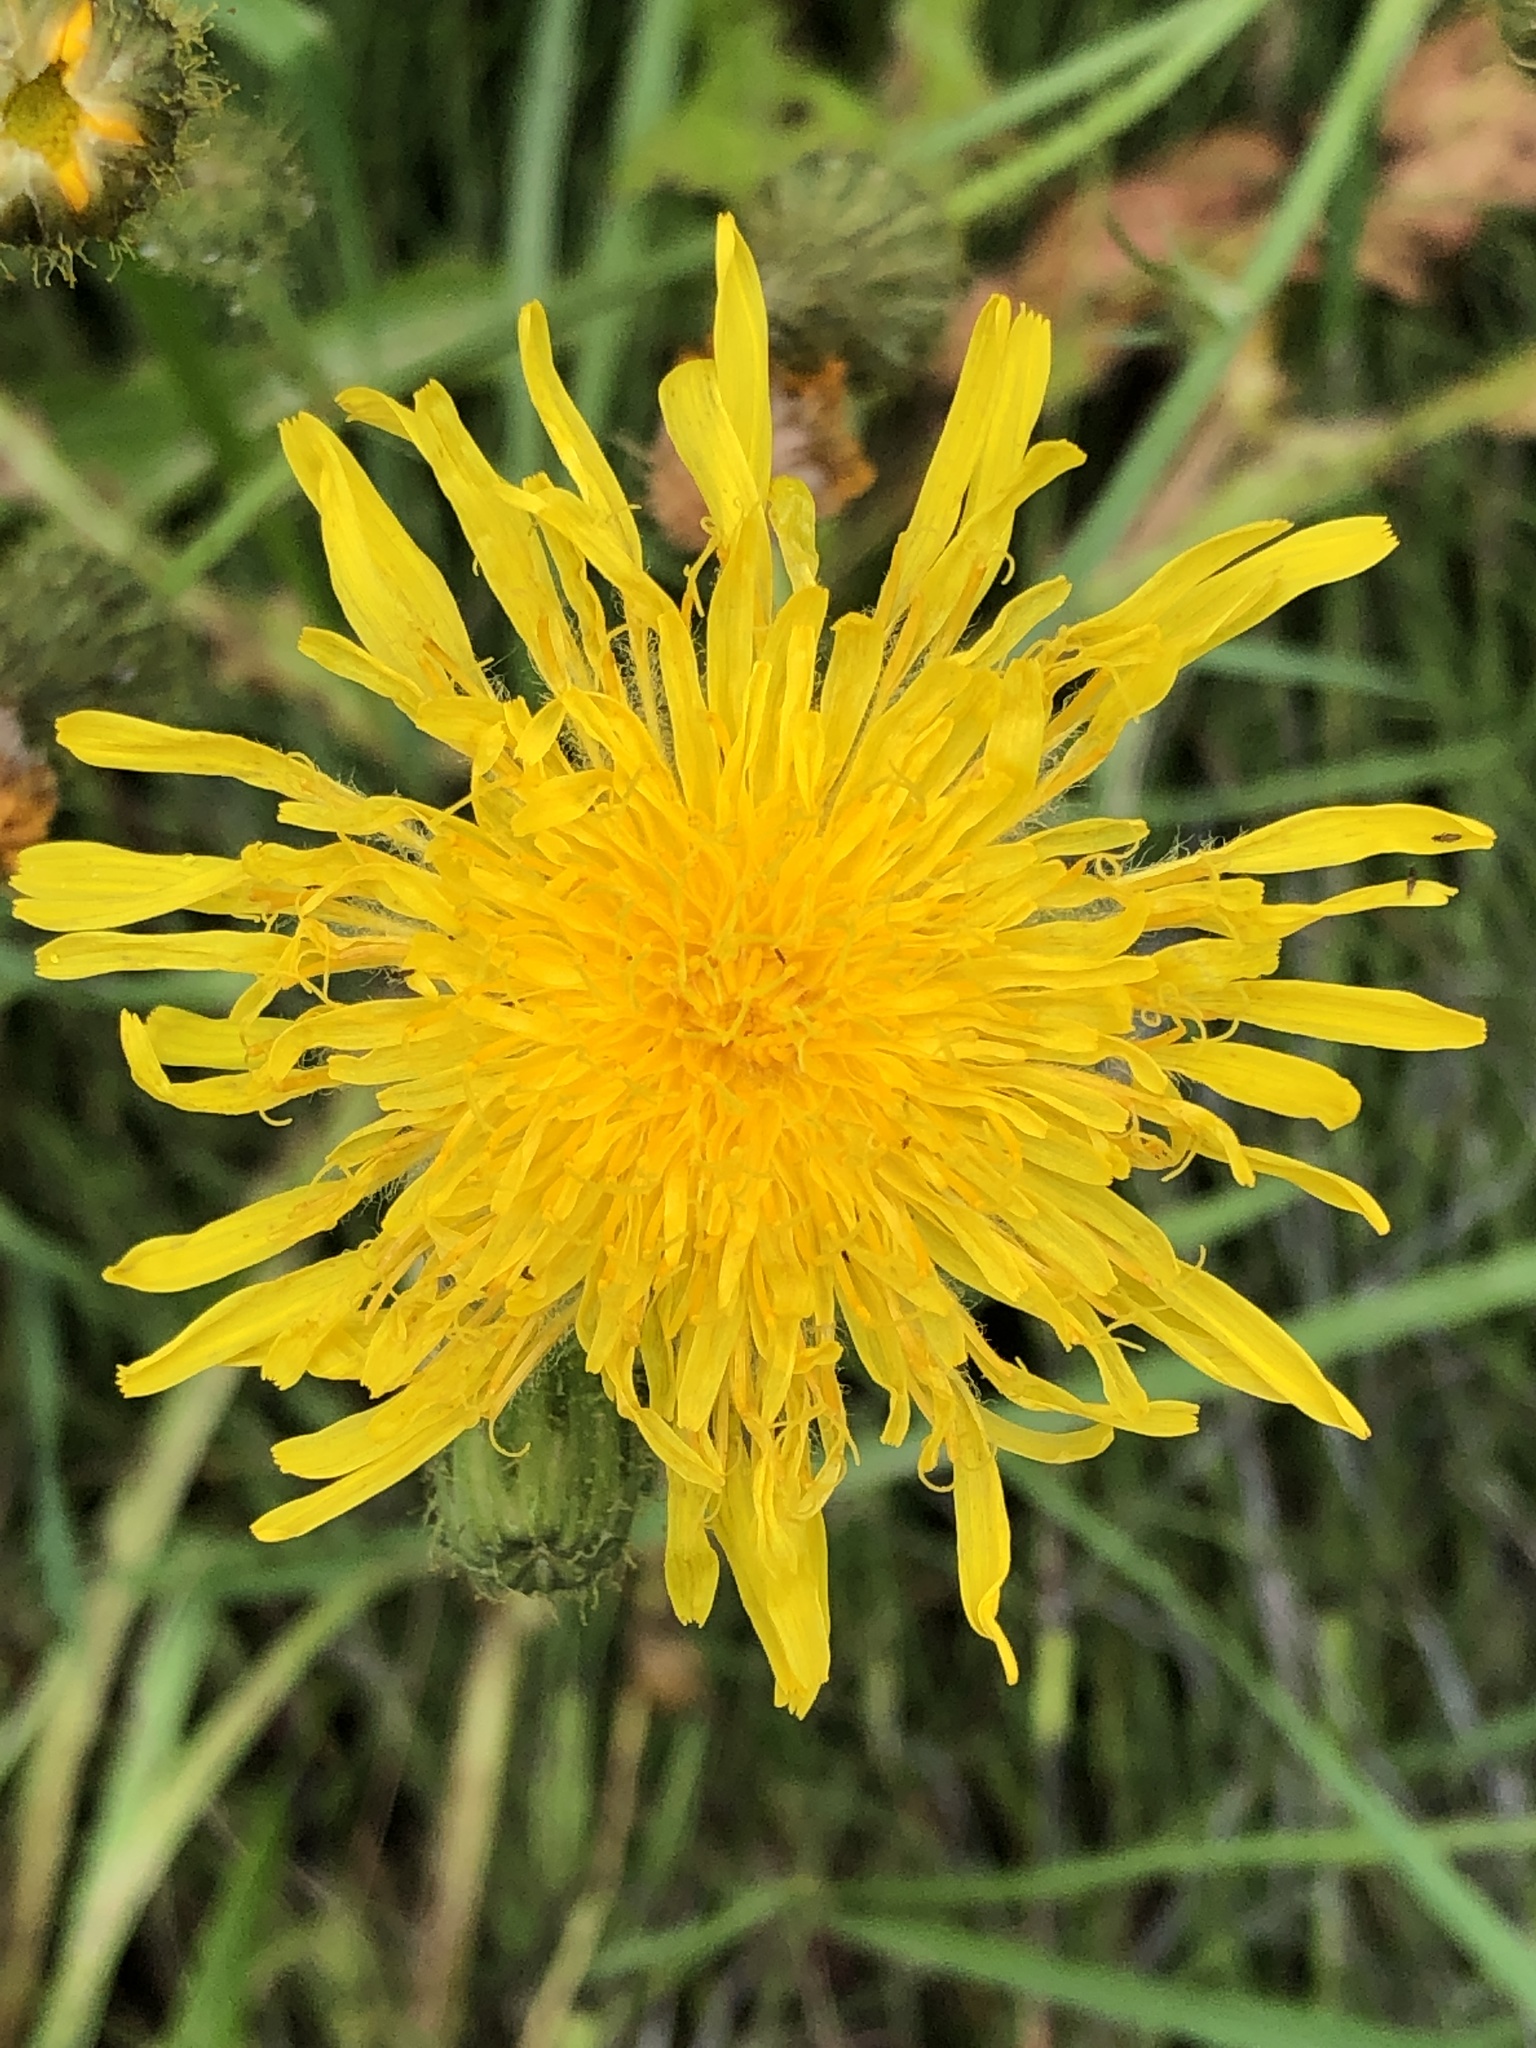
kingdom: Plantae
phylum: Tracheophyta
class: Magnoliopsida
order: Asterales
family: Asteraceae
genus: Sonchus
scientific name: Sonchus arvensis
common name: Perennial sow-thistle
